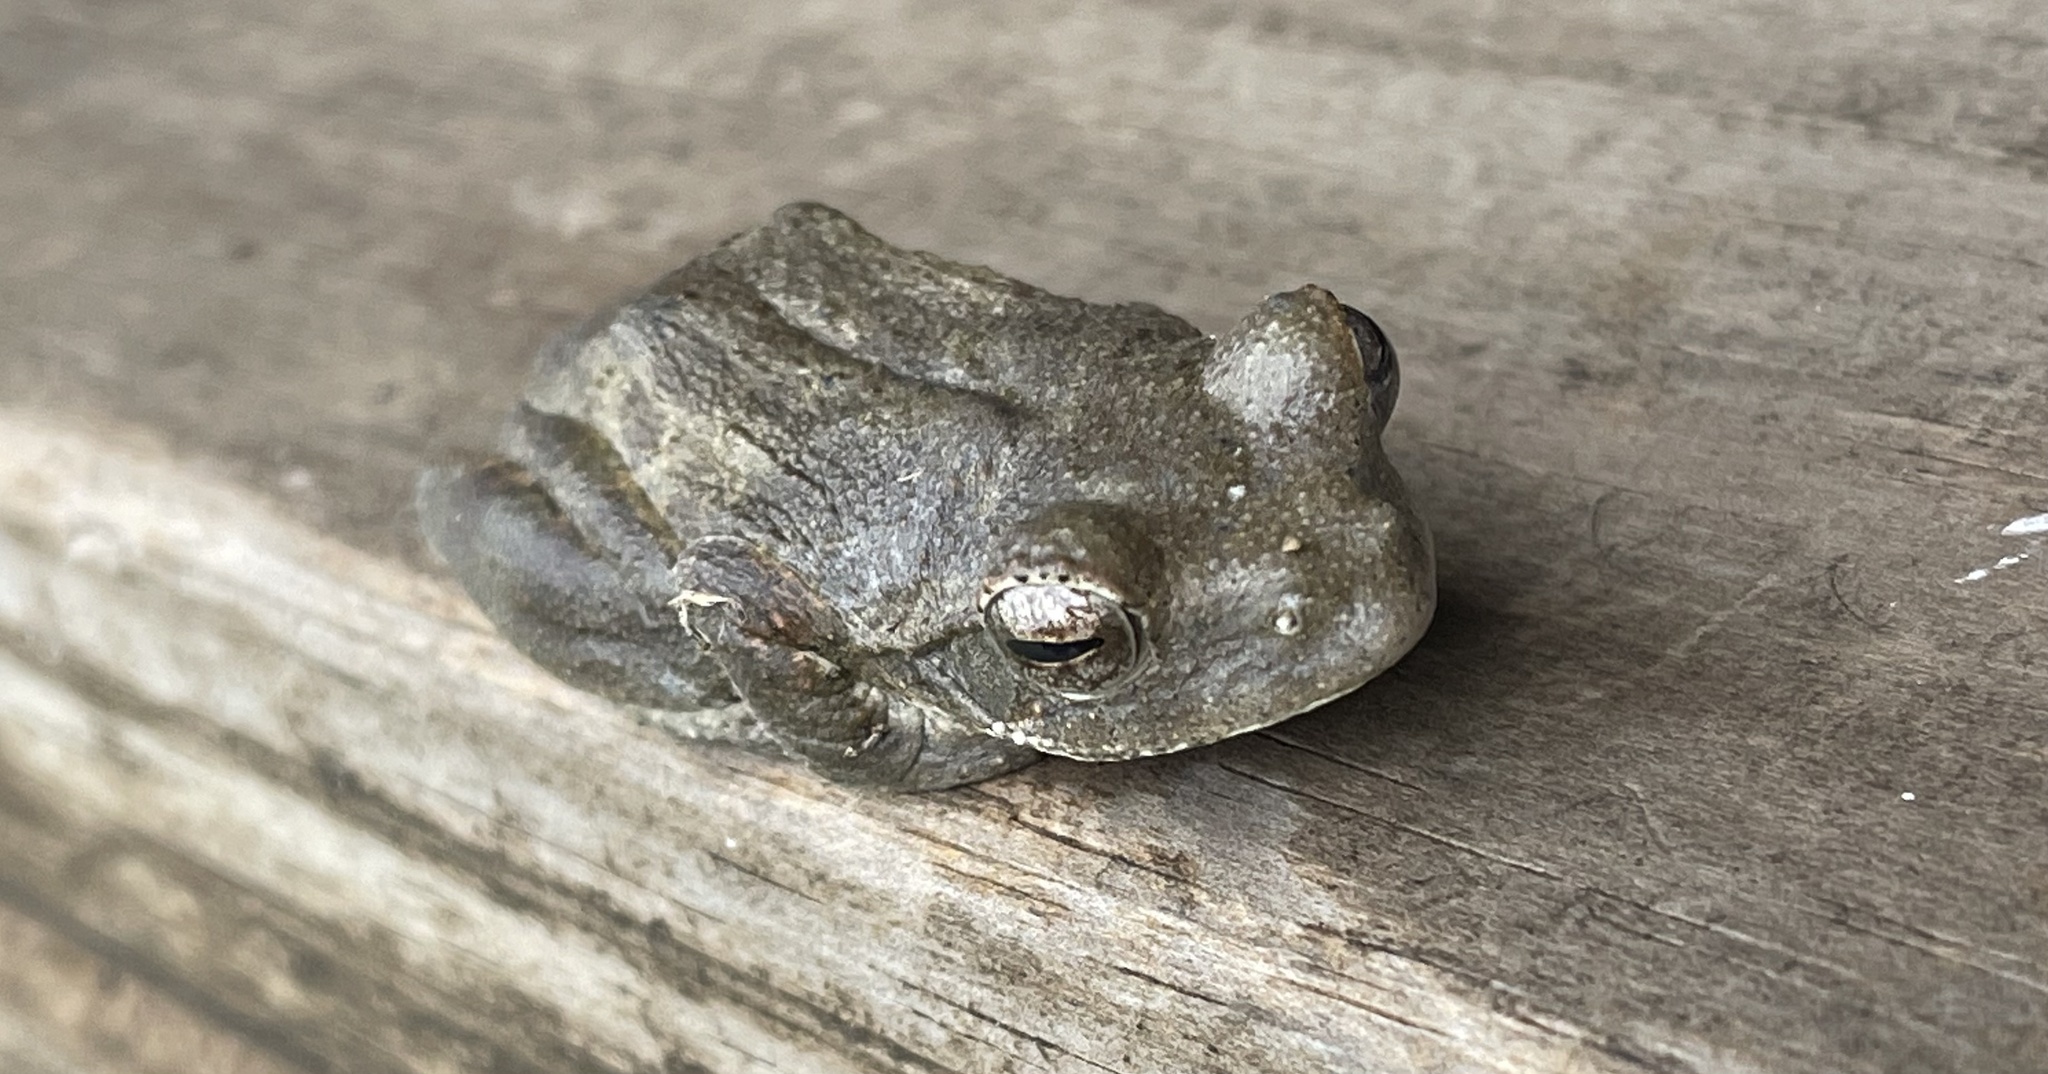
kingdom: Animalia
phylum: Chordata
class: Amphibia
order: Anura
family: Rhacophoridae
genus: Chiromantis
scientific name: Chiromantis xerampelina
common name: African gray treefrog
